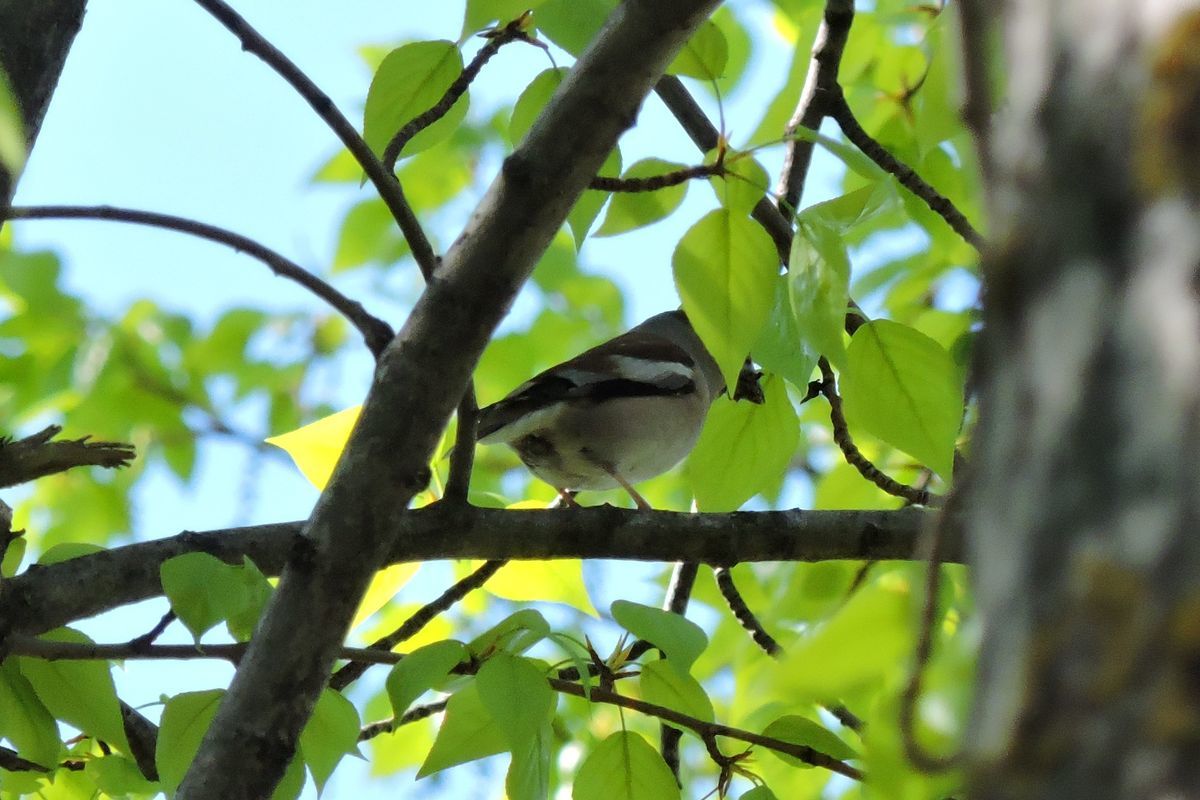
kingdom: Animalia
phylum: Chordata
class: Aves
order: Passeriformes
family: Fringillidae
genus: Coccothraustes
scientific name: Coccothraustes coccothraustes
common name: Hawfinch
